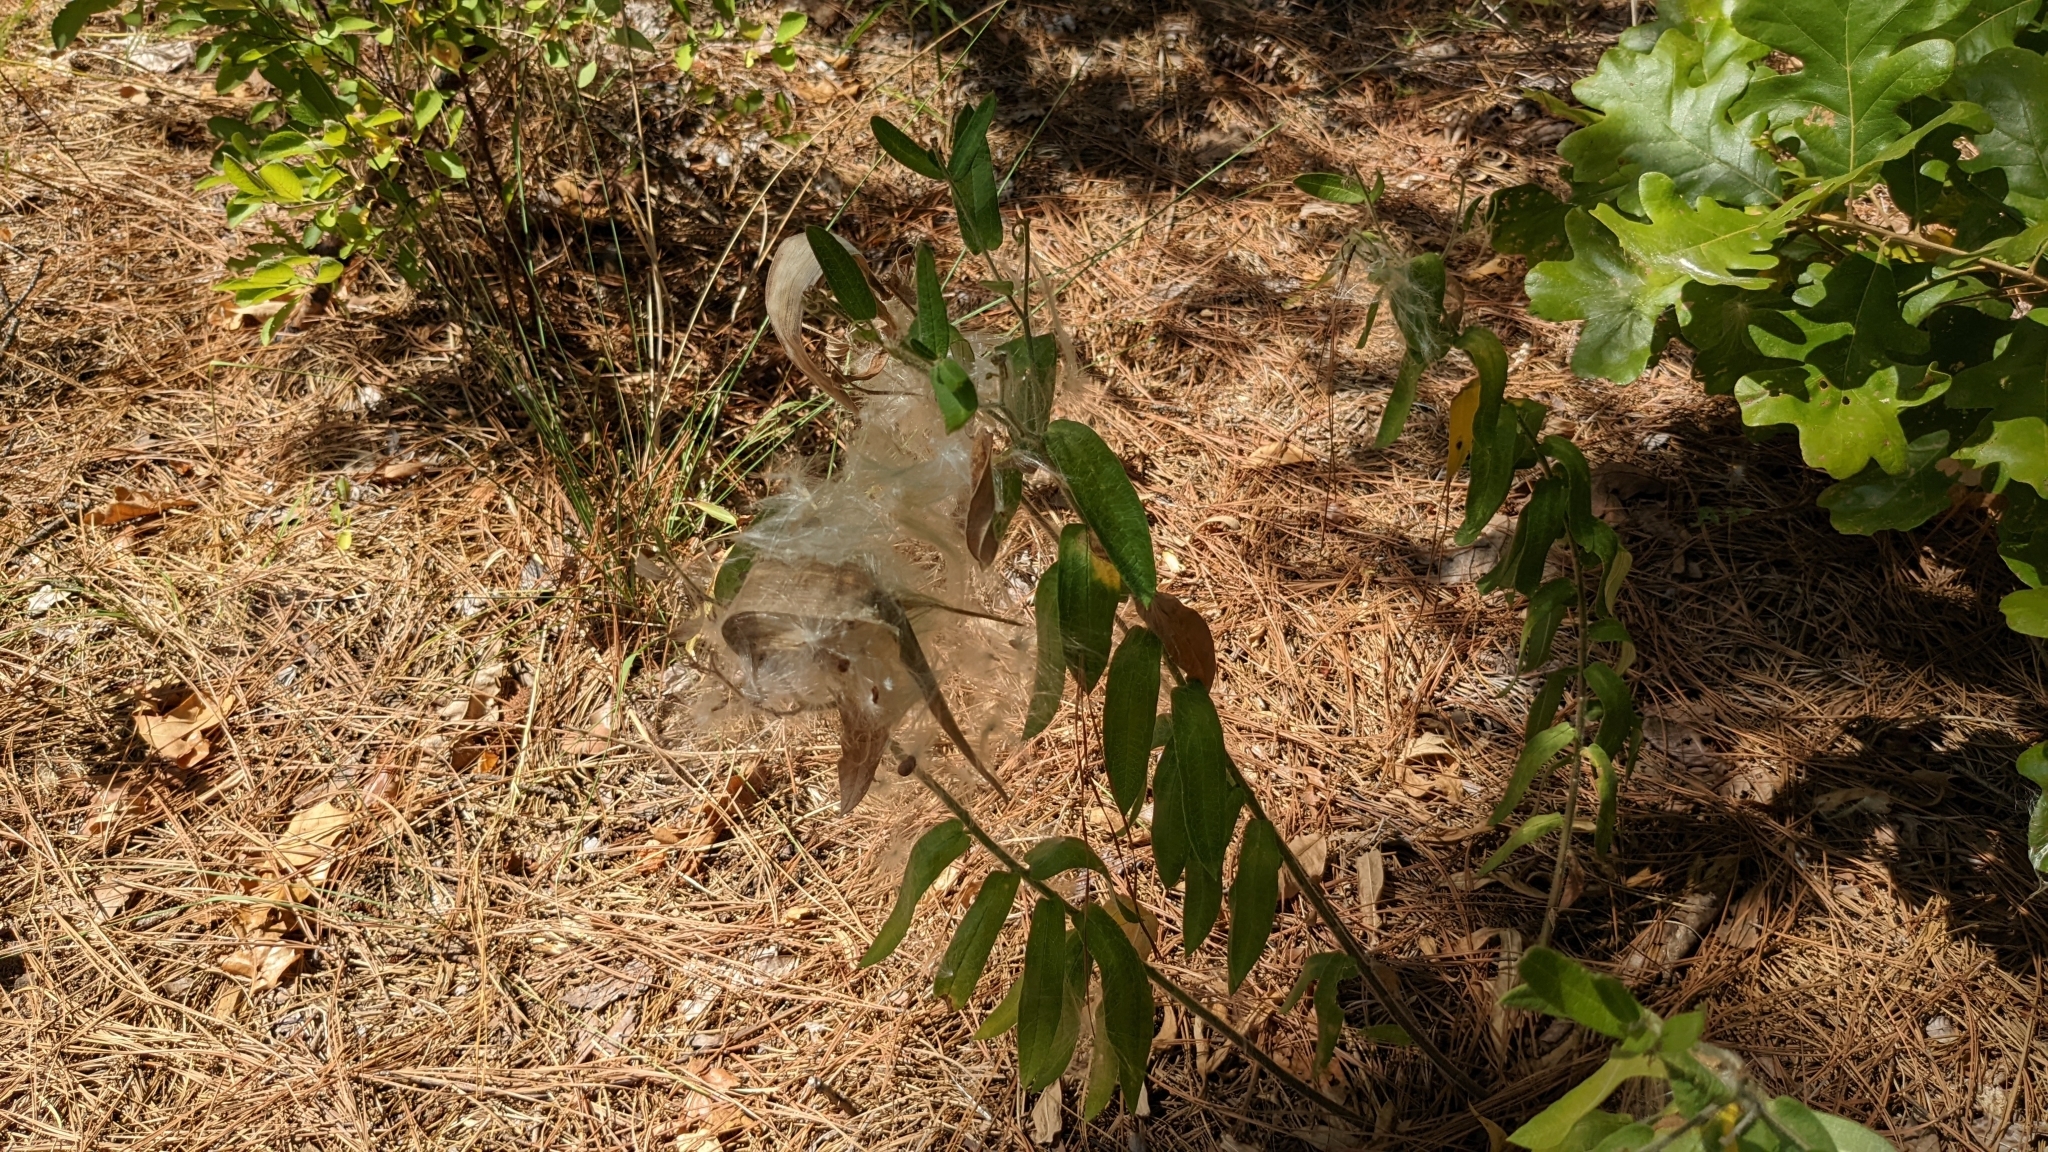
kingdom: Plantae
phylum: Tracheophyta
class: Magnoliopsida
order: Gentianales
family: Apocynaceae
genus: Asclepias
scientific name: Asclepias tuberosa
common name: Butterfly milkweed
